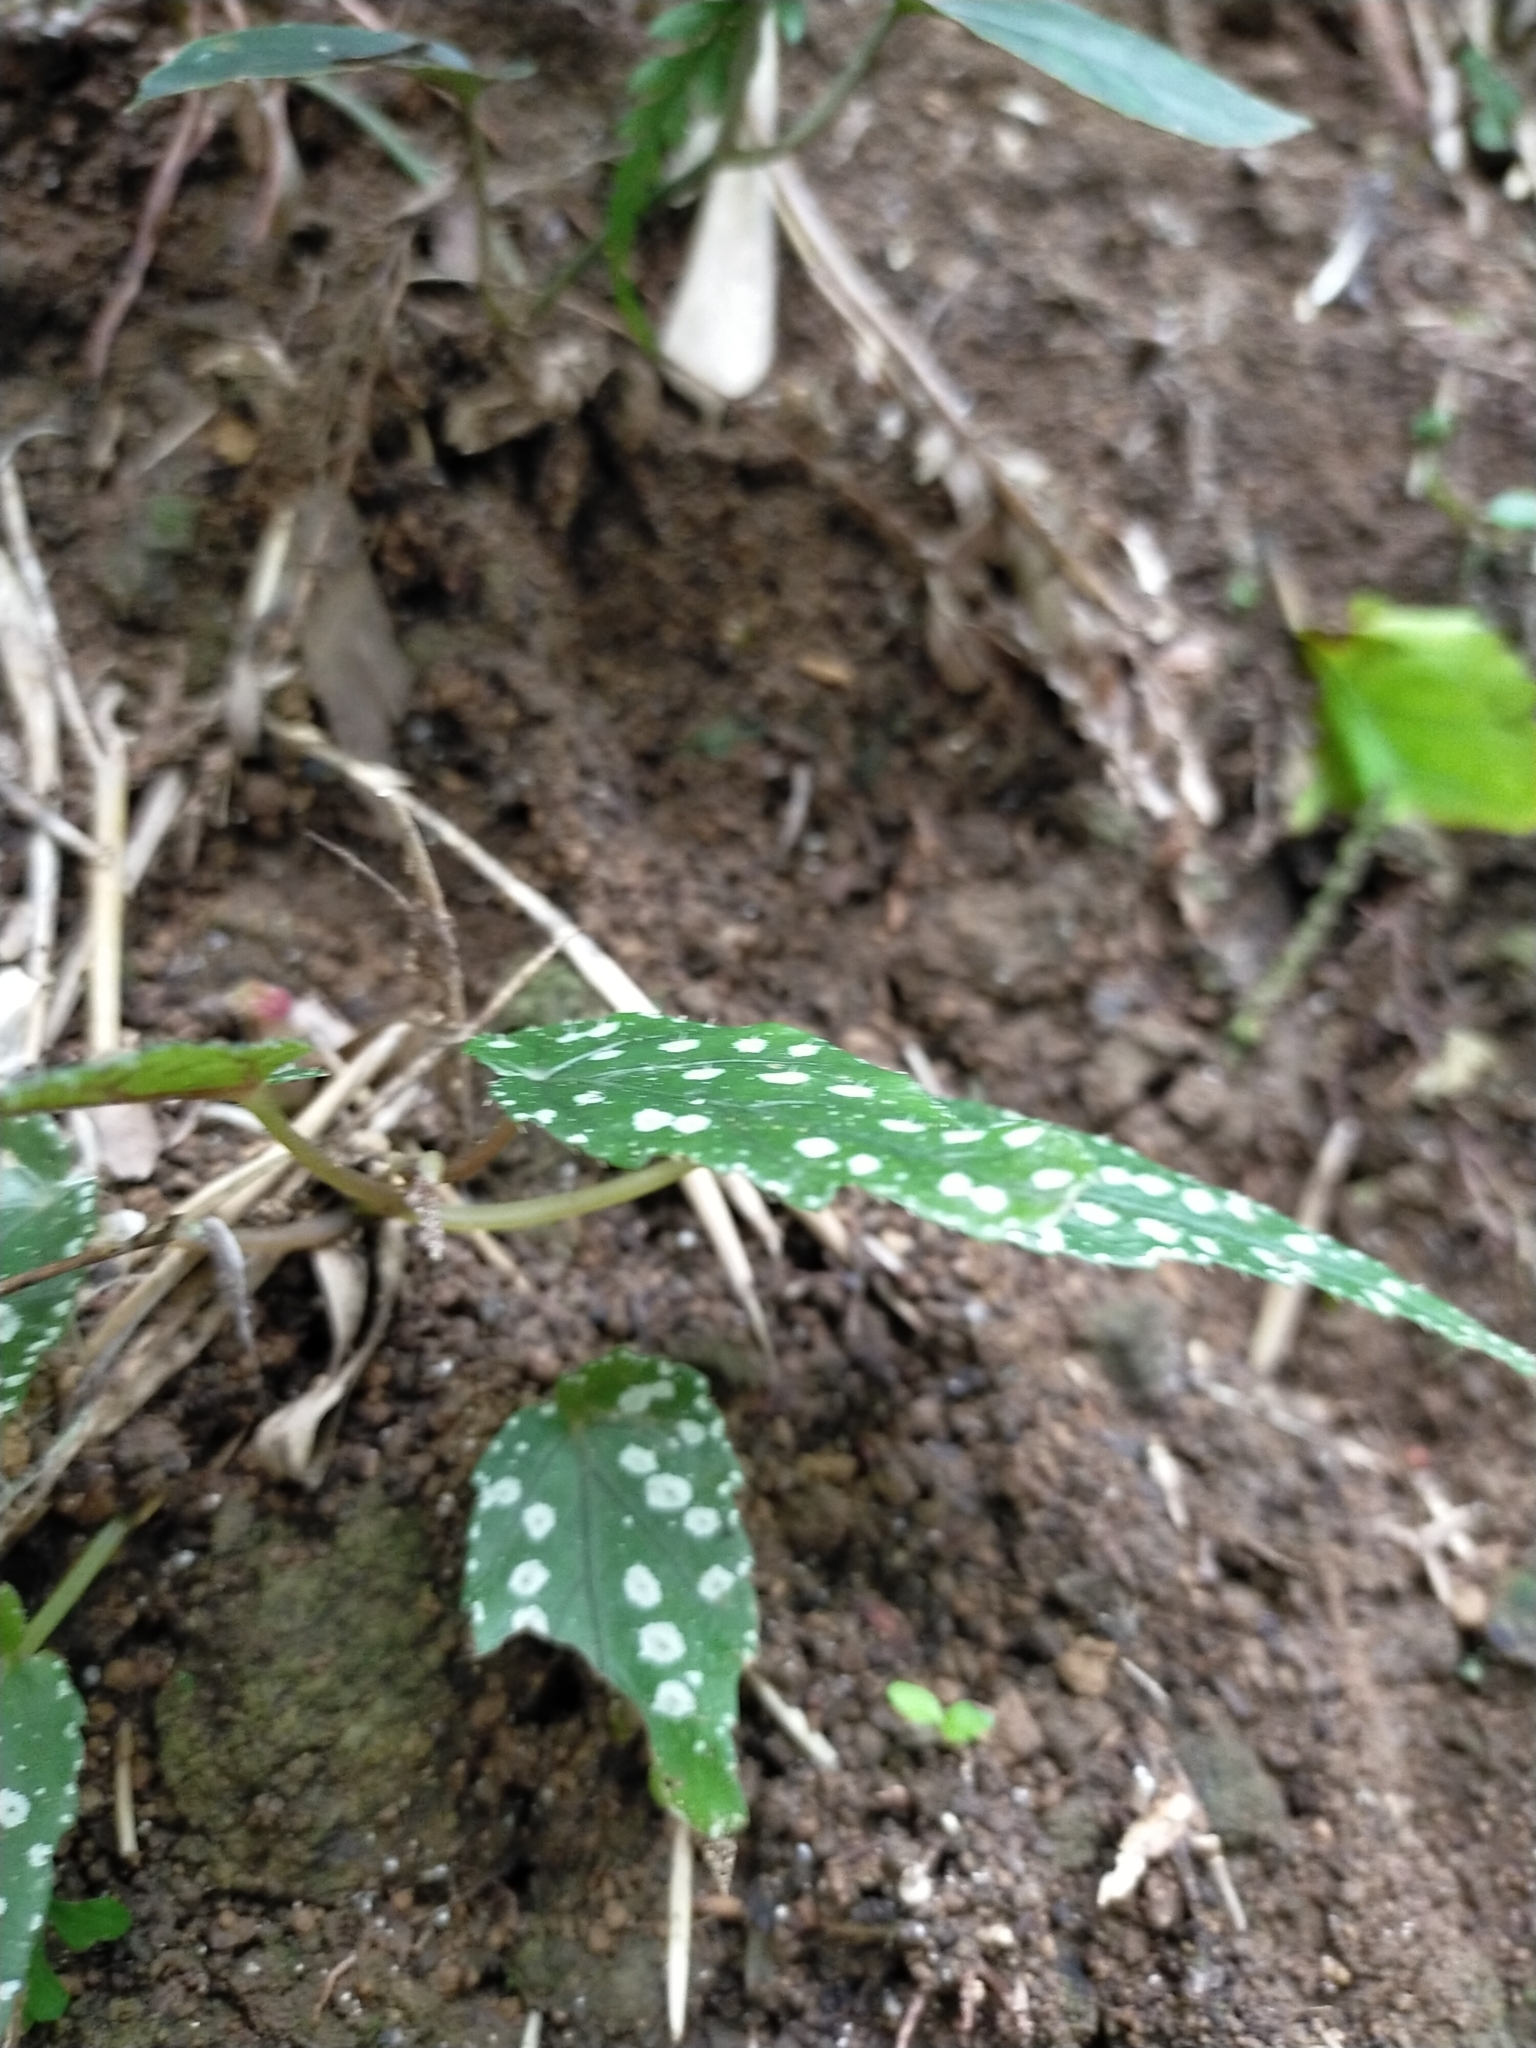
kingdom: Plantae
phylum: Tracheophyta
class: Magnoliopsida
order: Cucurbitales
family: Begoniaceae
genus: Begonia
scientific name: Begonia taiwaniana
